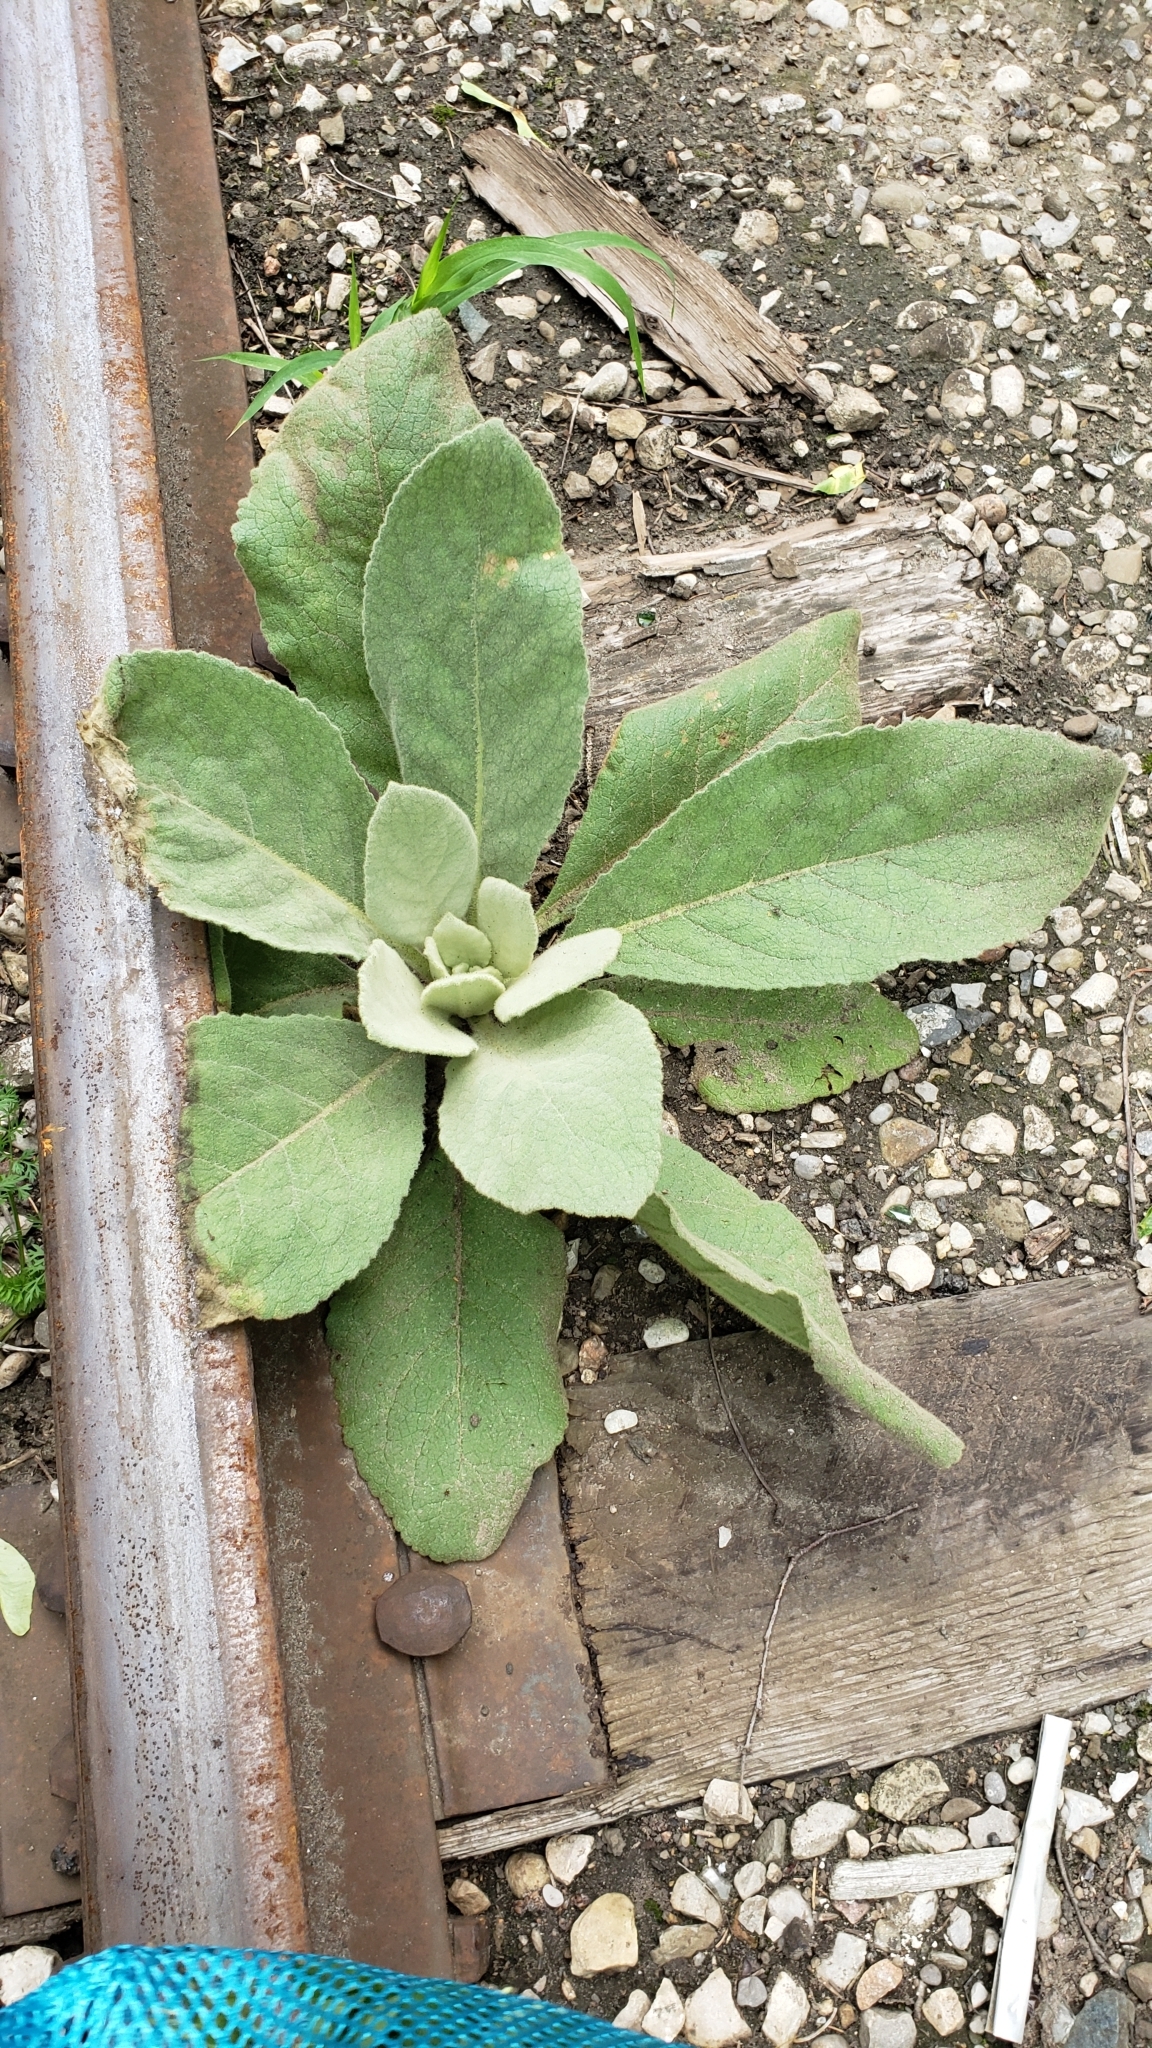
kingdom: Plantae
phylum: Tracheophyta
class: Magnoliopsida
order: Lamiales
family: Scrophulariaceae
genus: Verbascum
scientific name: Verbascum thapsus
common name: Common mullein
